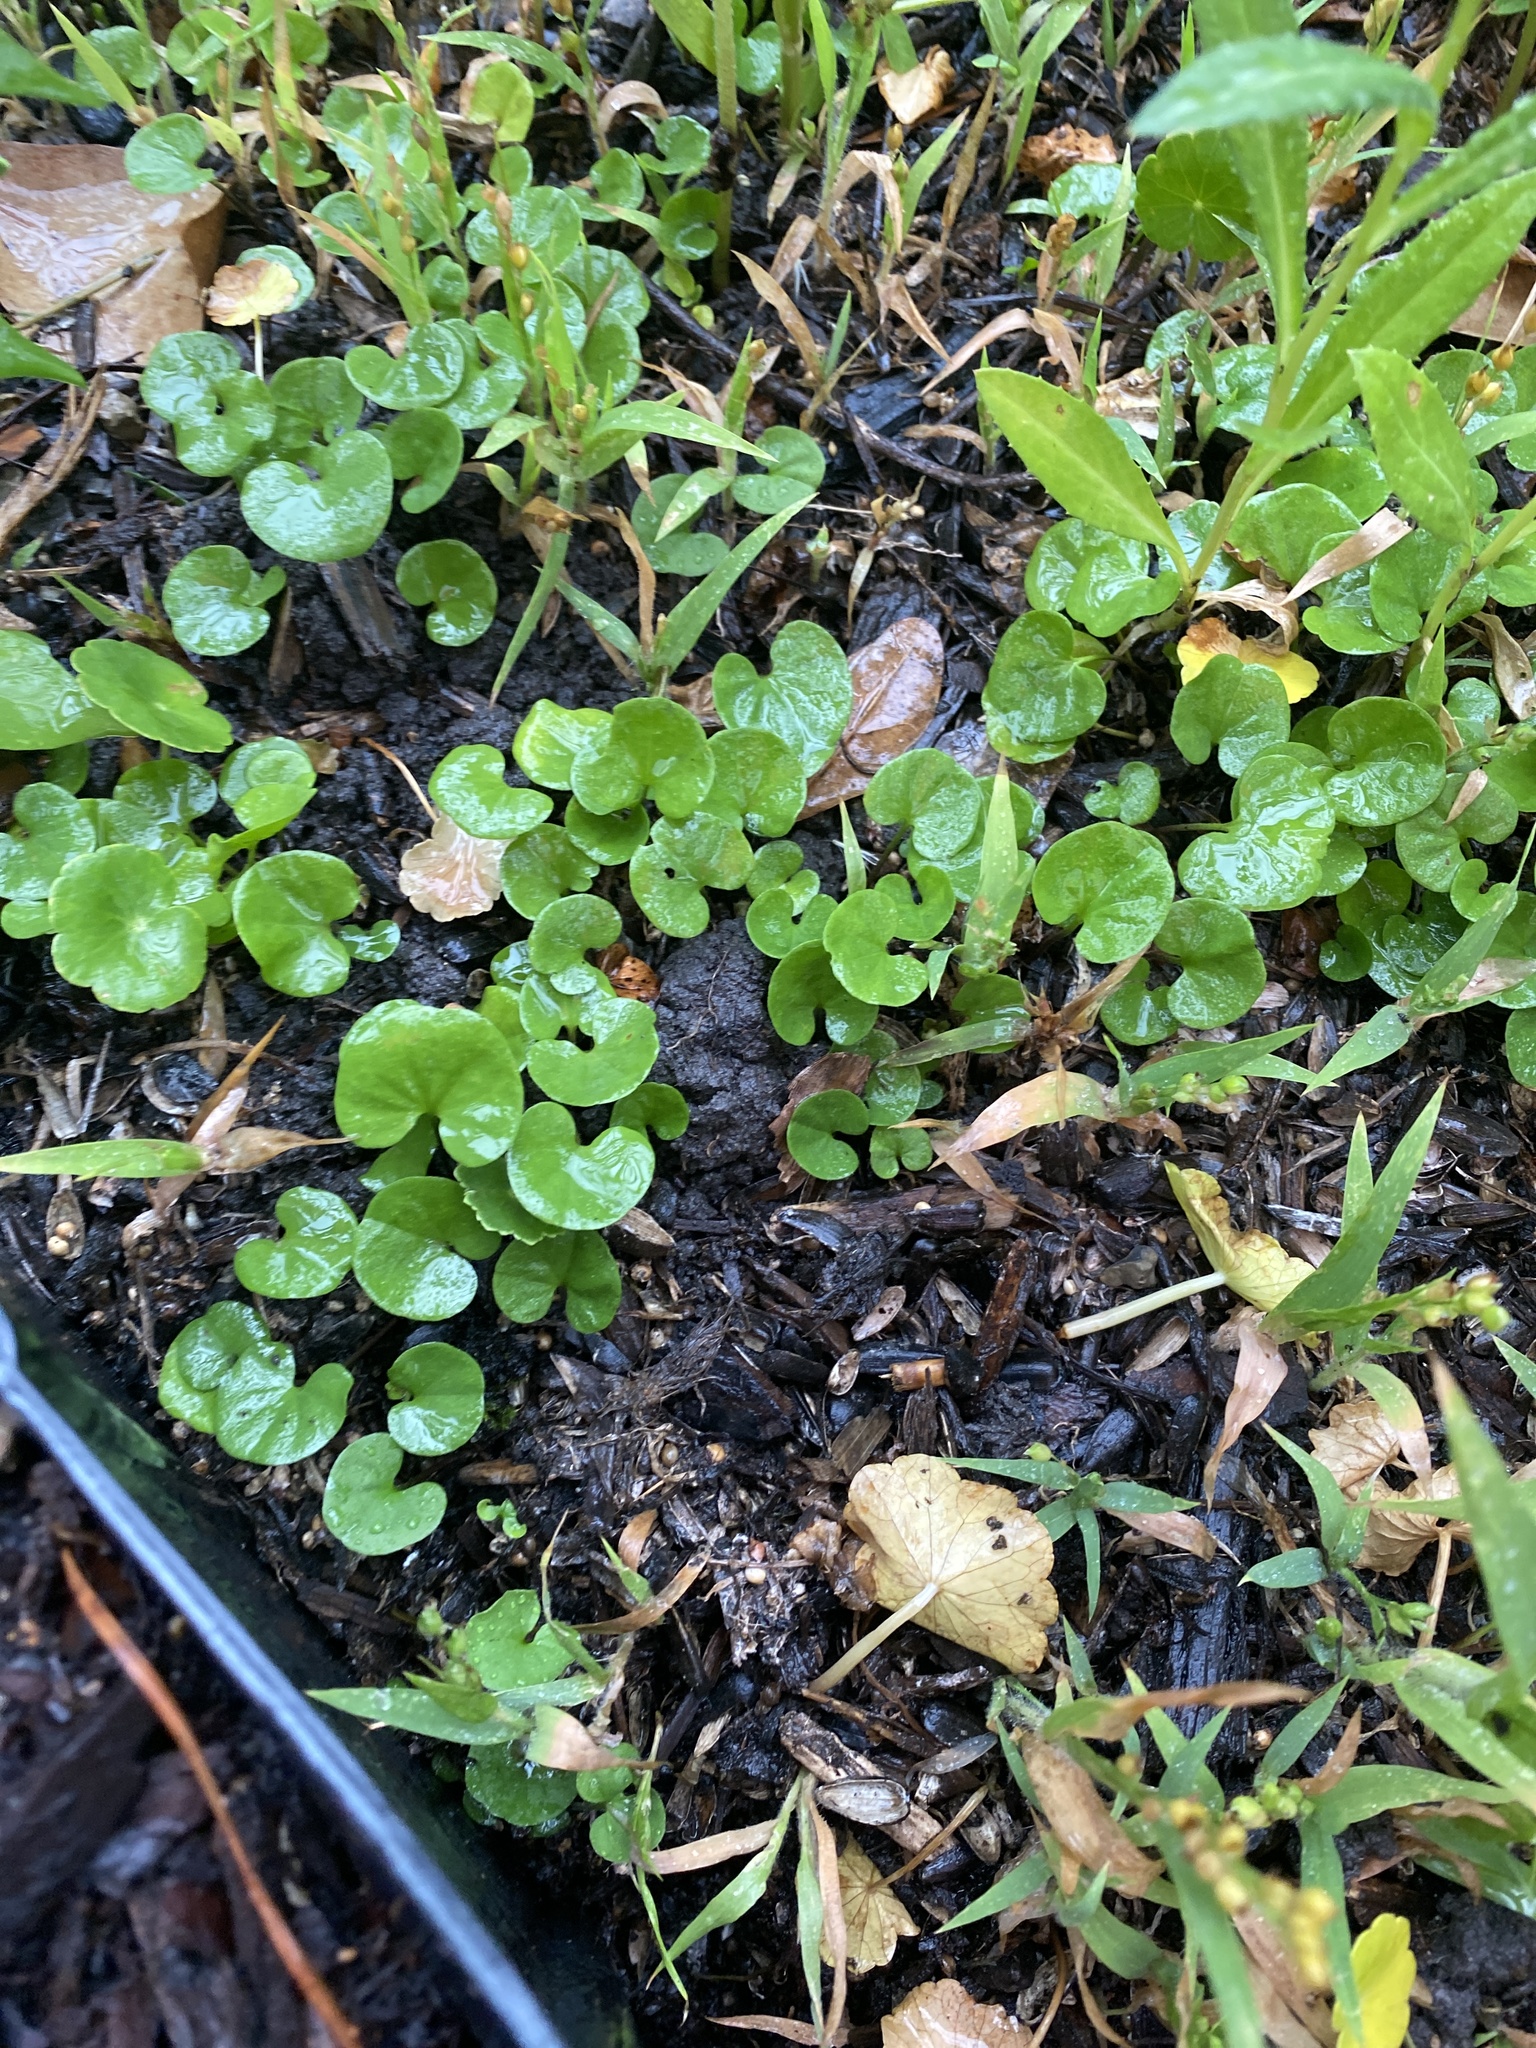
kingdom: Plantae
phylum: Tracheophyta
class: Magnoliopsida
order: Solanales
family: Convolvulaceae
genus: Dichondra
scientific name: Dichondra carolinensis
